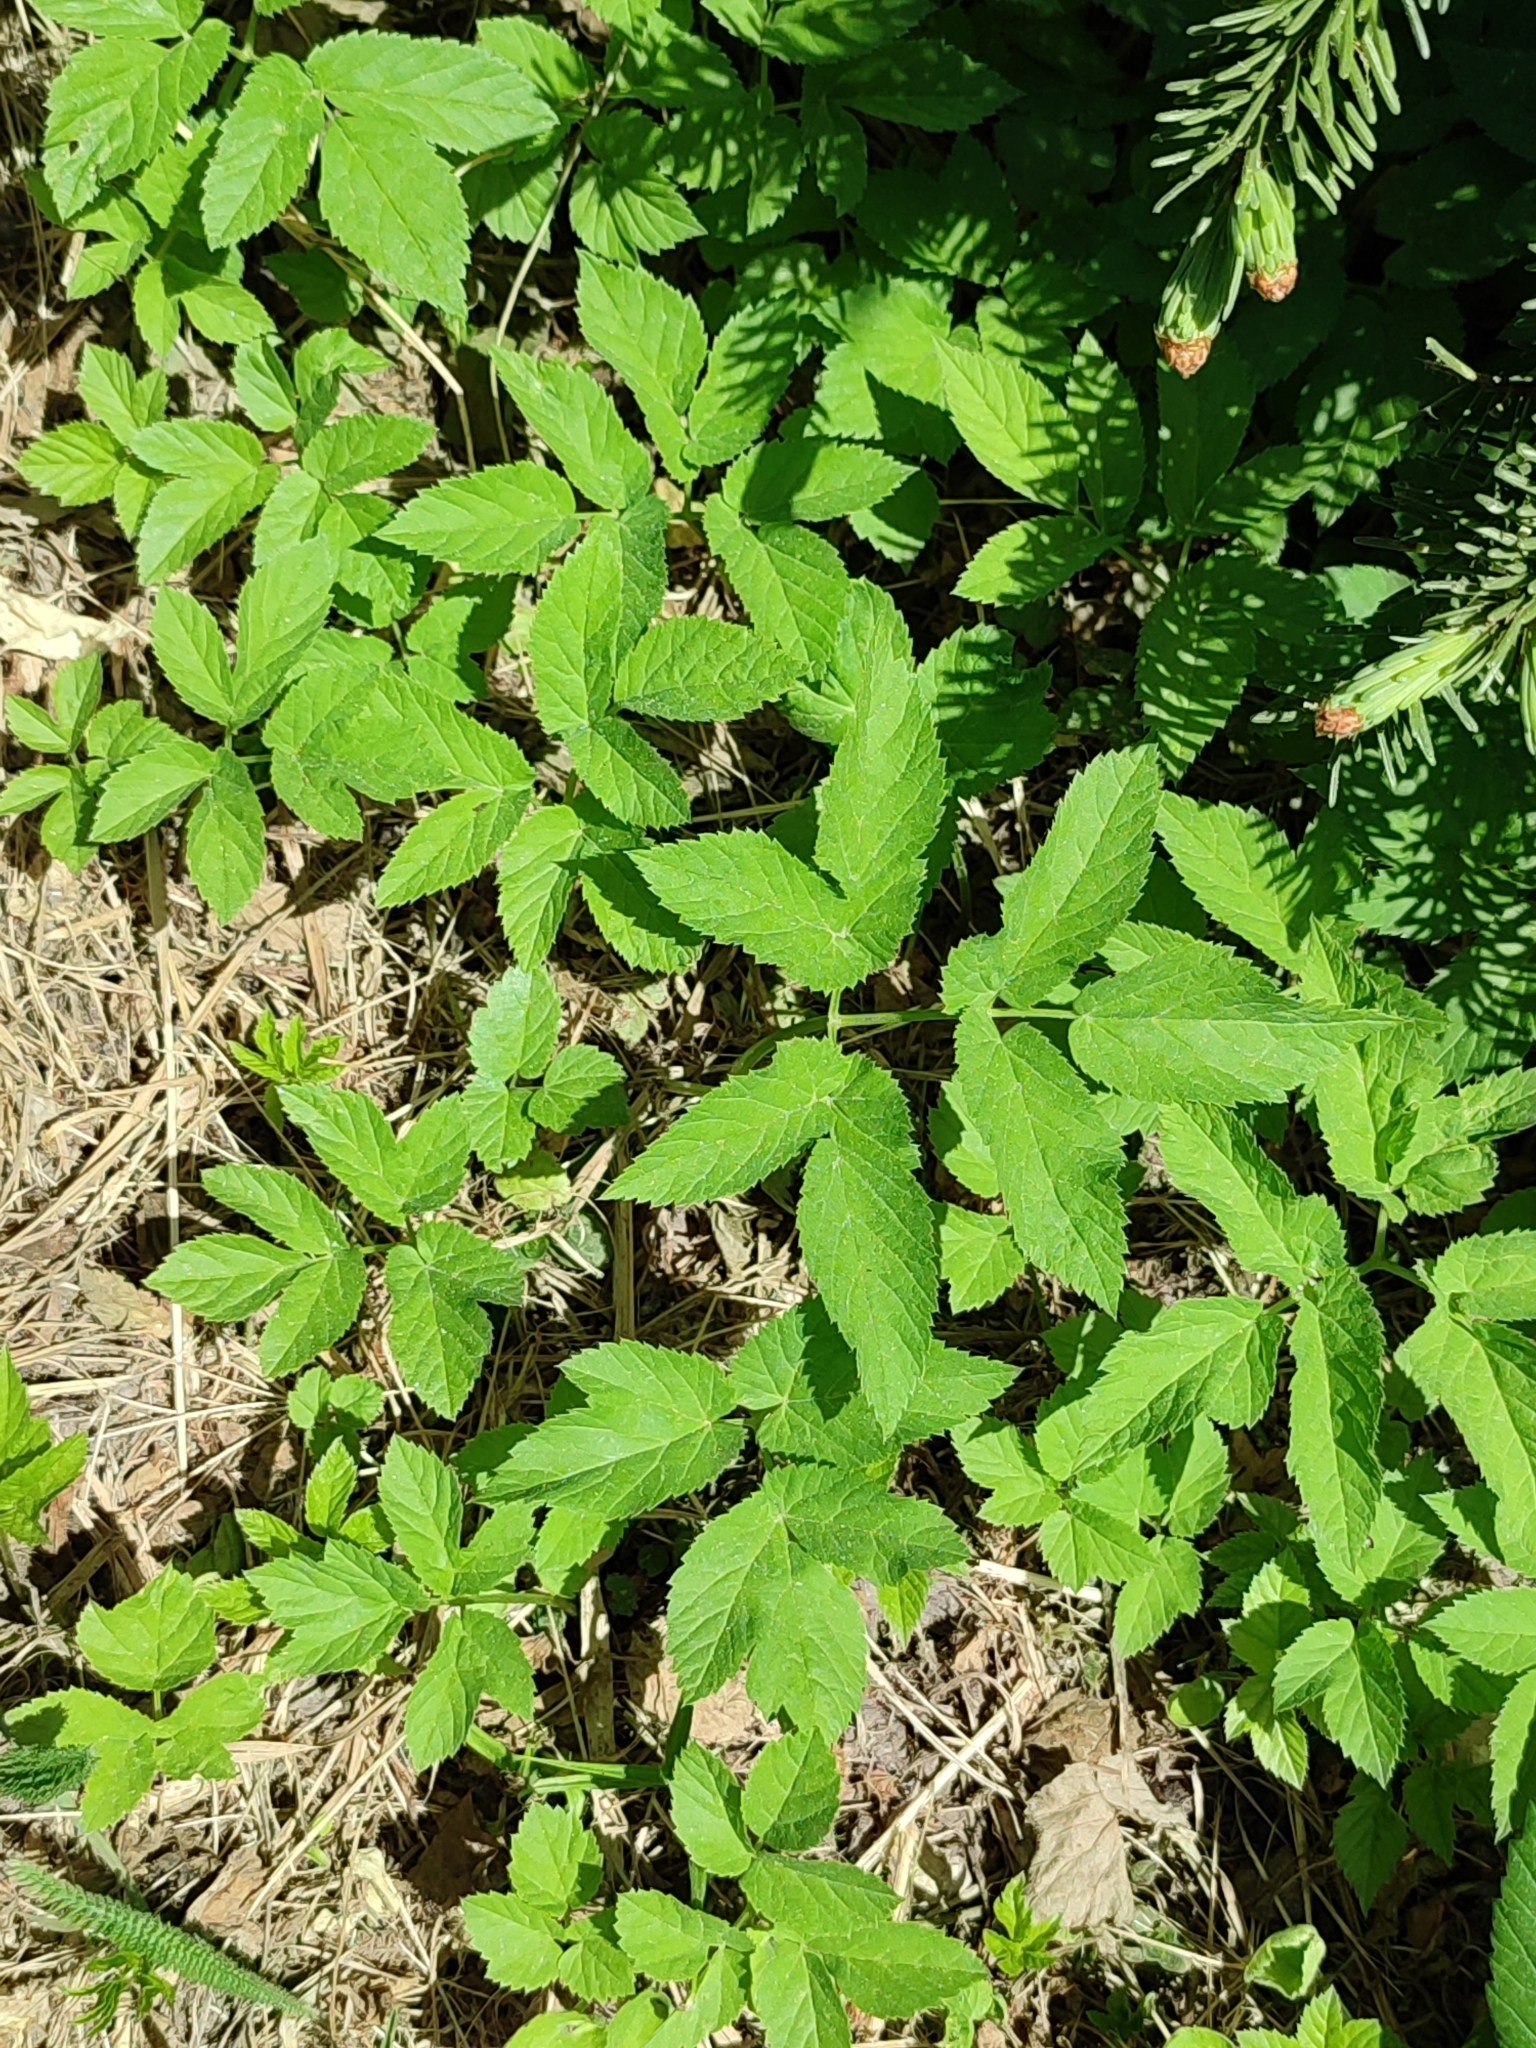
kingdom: Plantae
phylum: Tracheophyta
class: Magnoliopsida
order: Apiales
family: Apiaceae
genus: Aegopodium
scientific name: Aegopodium podagraria
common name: Ground-elder
